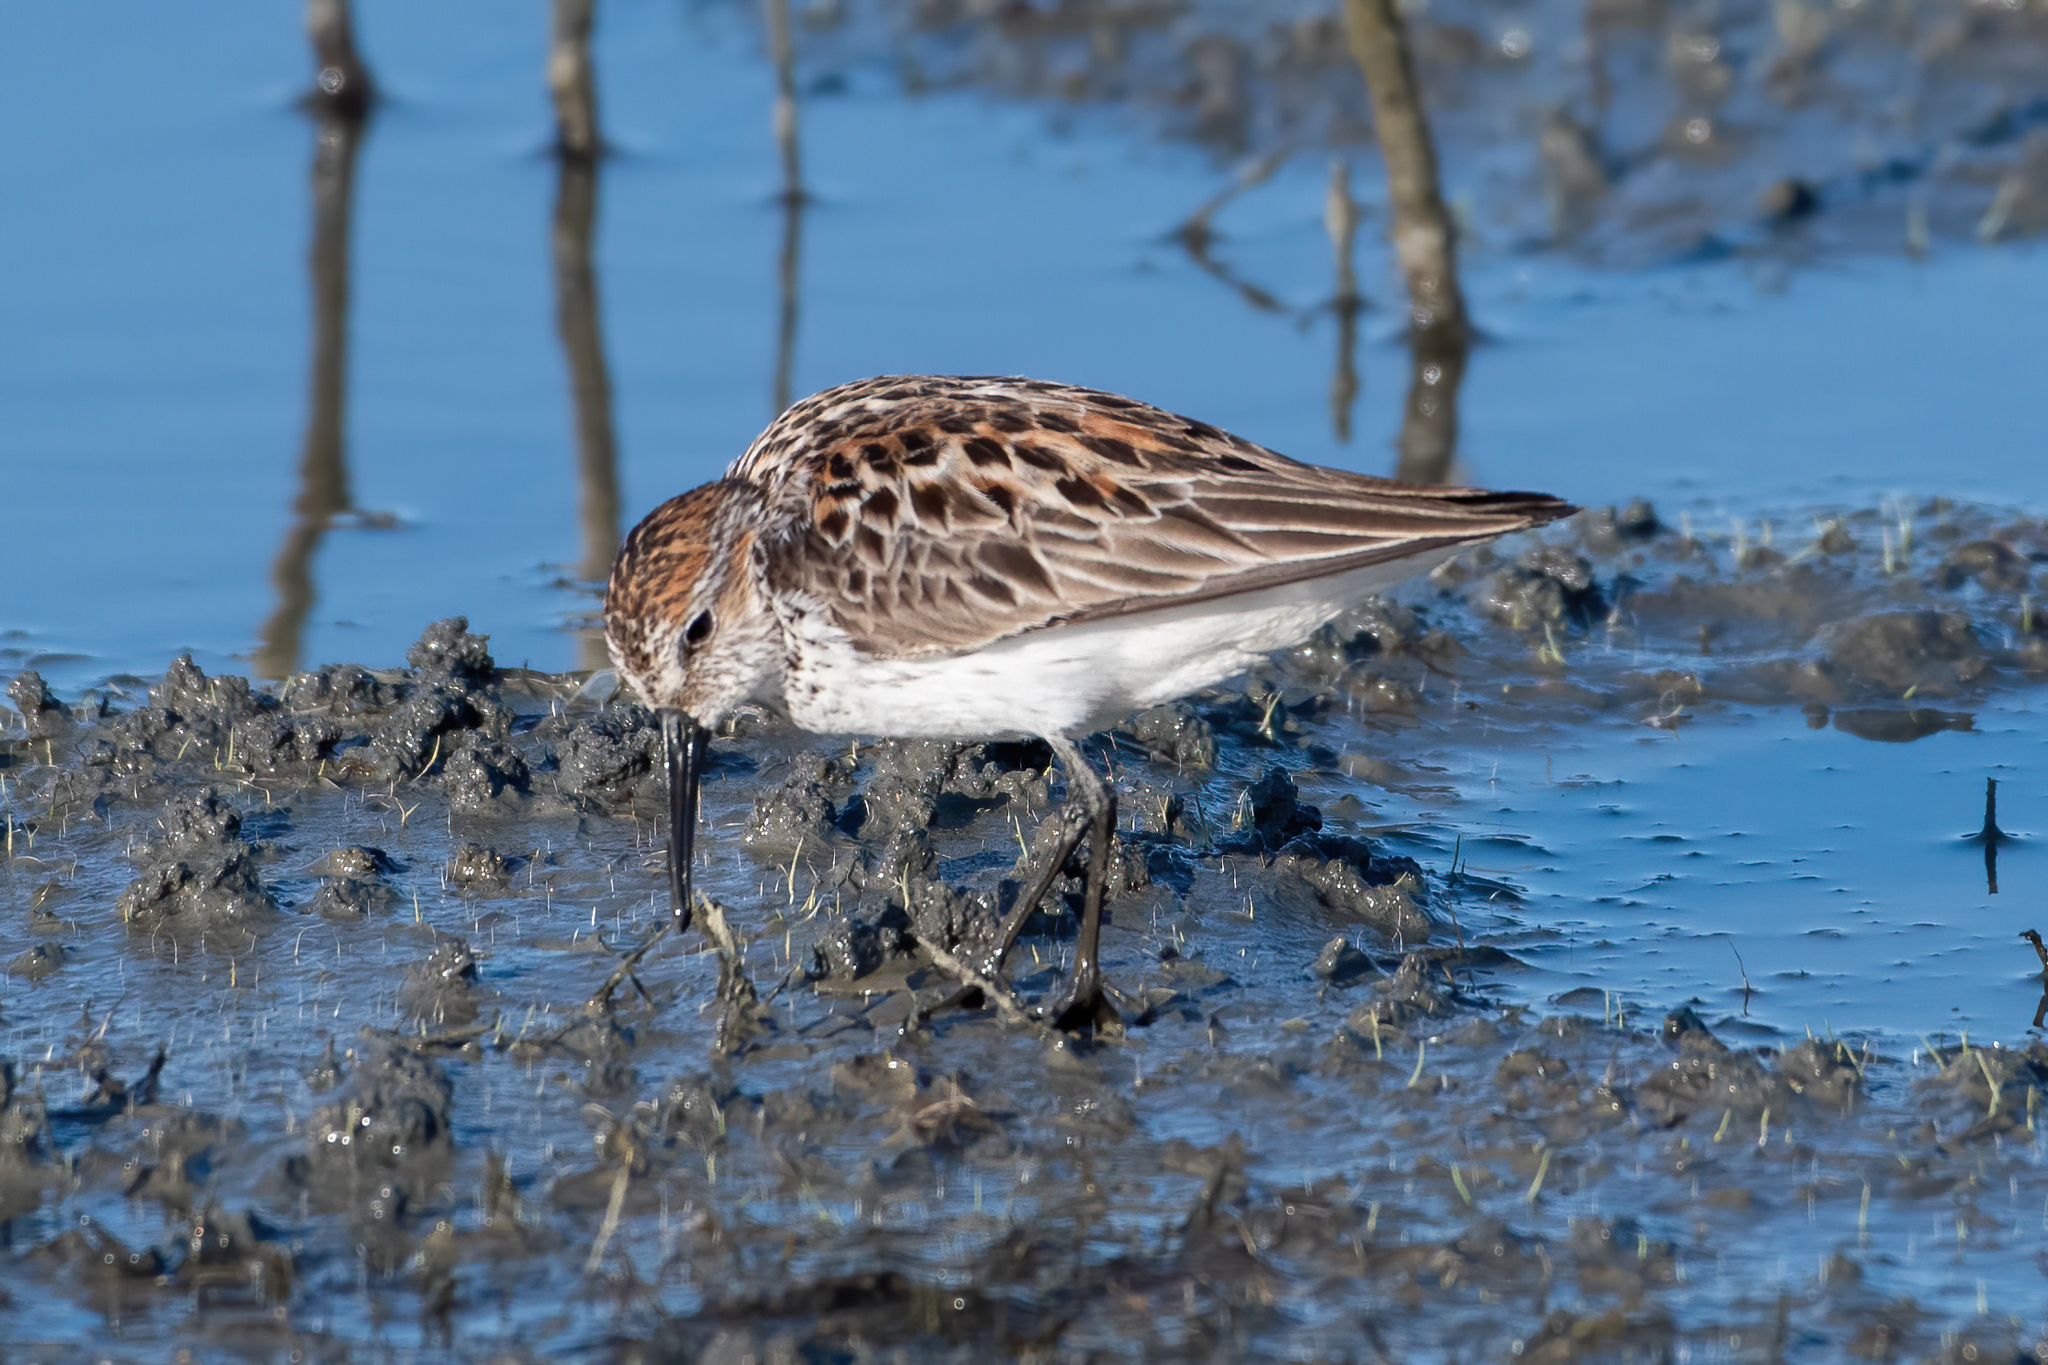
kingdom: Animalia
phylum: Chordata
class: Aves
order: Charadriiformes
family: Scolopacidae
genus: Calidris
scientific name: Calidris mauri
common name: Western sandpiper
